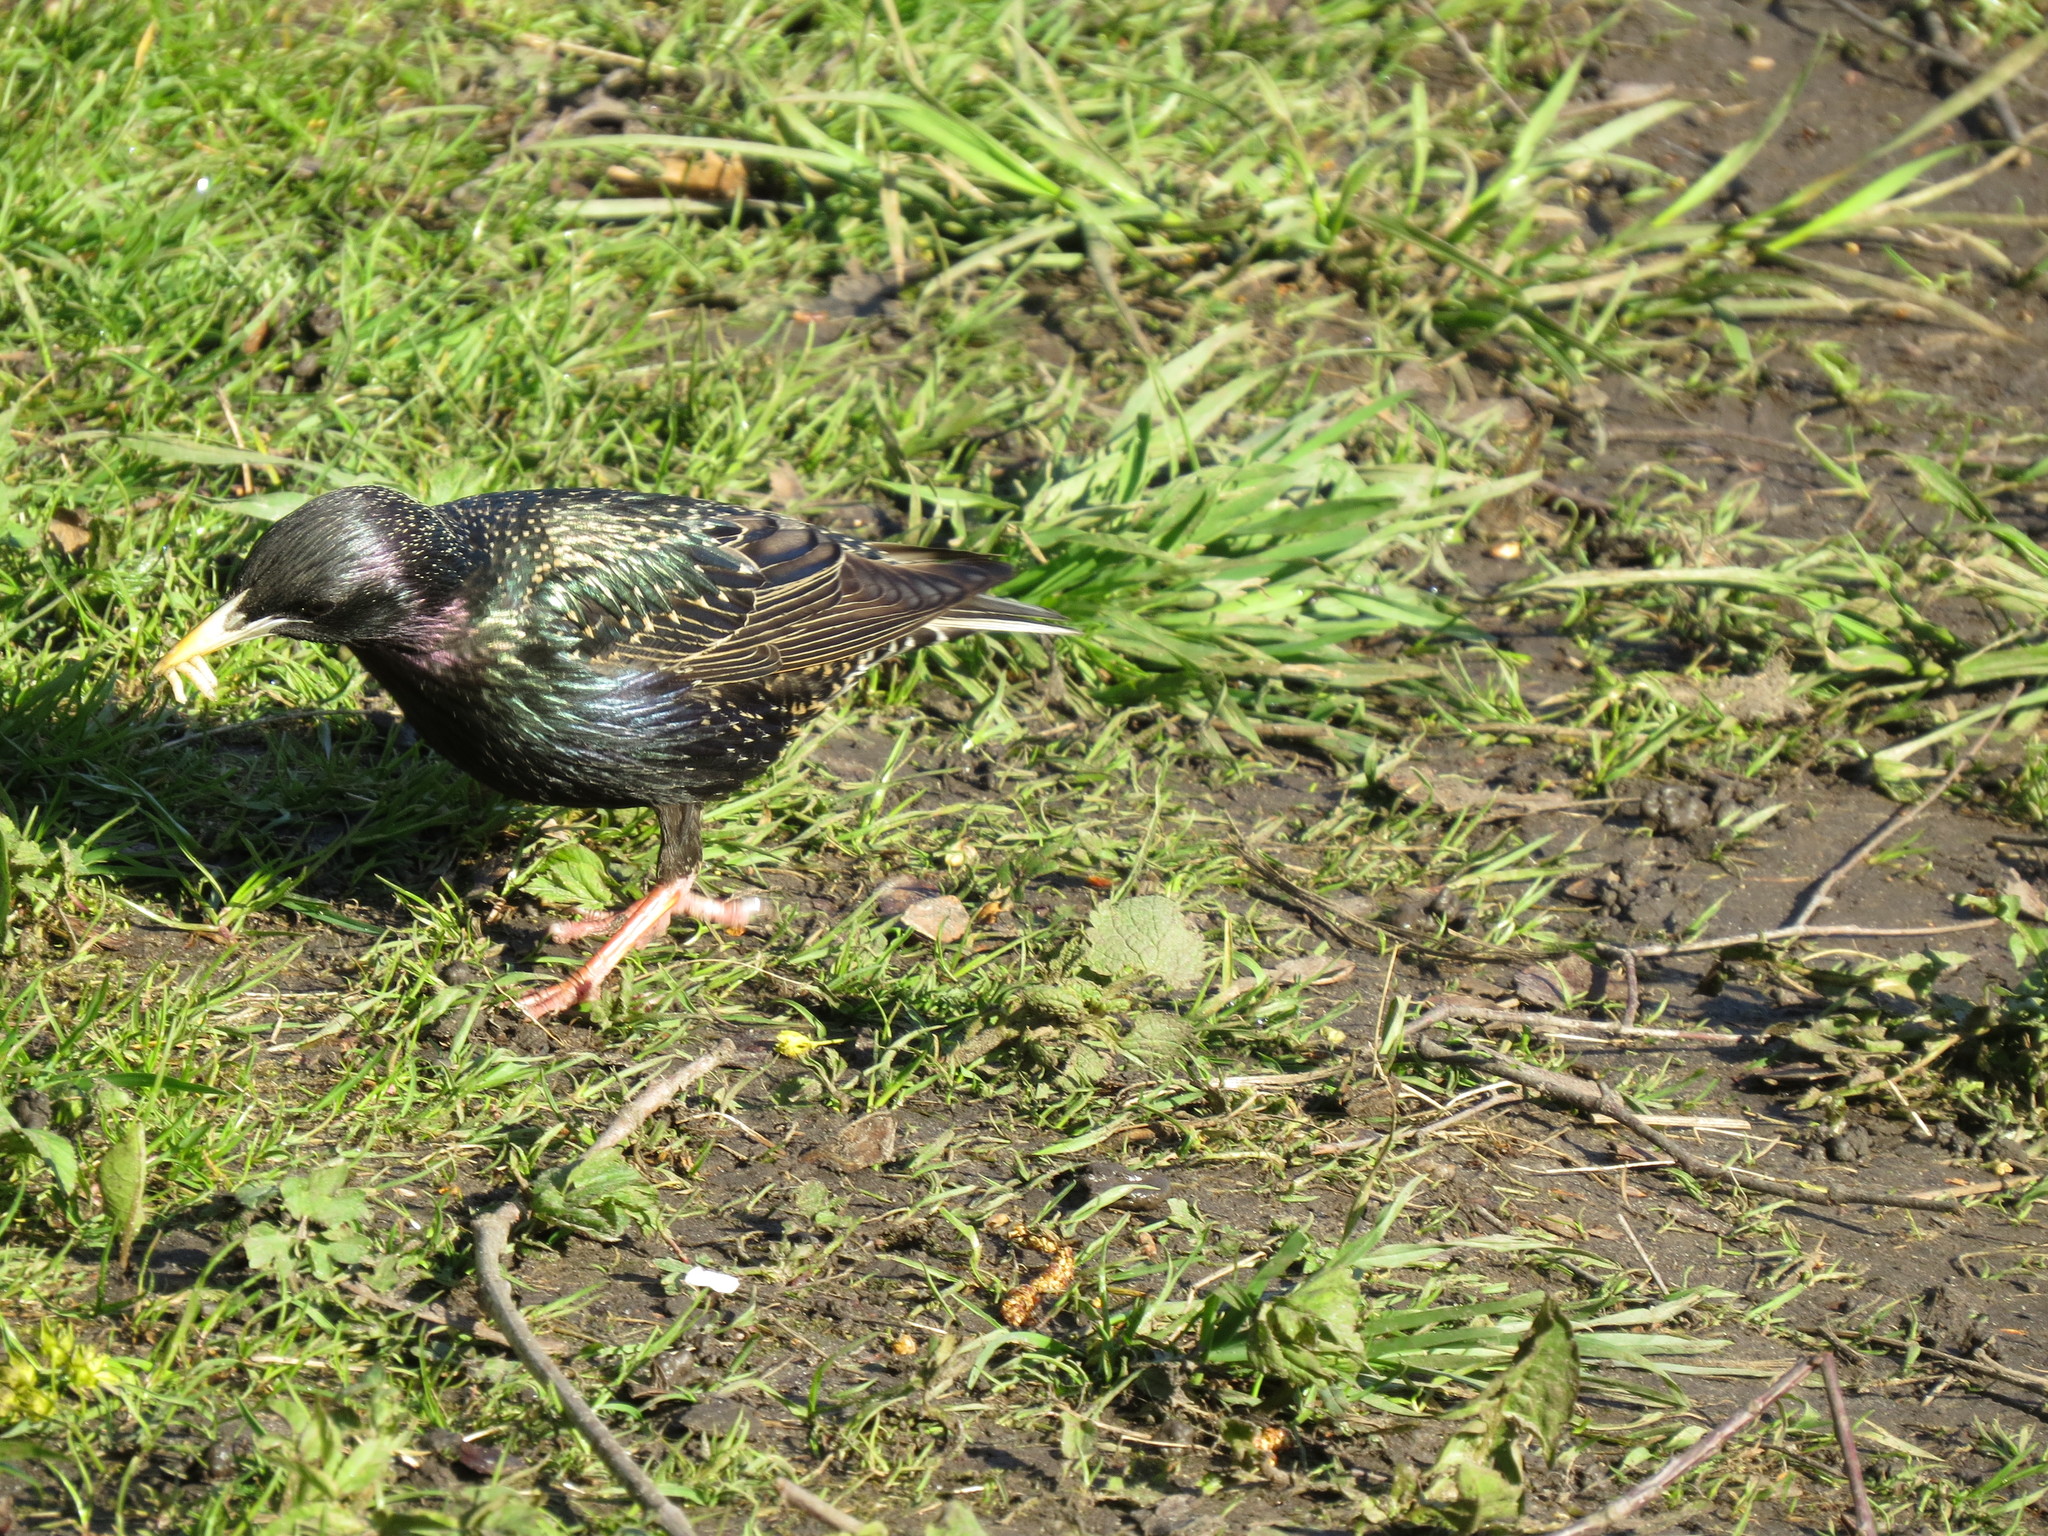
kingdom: Animalia
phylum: Chordata
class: Aves
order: Passeriformes
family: Sturnidae
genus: Sturnus
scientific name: Sturnus vulgaris
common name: Common starling
